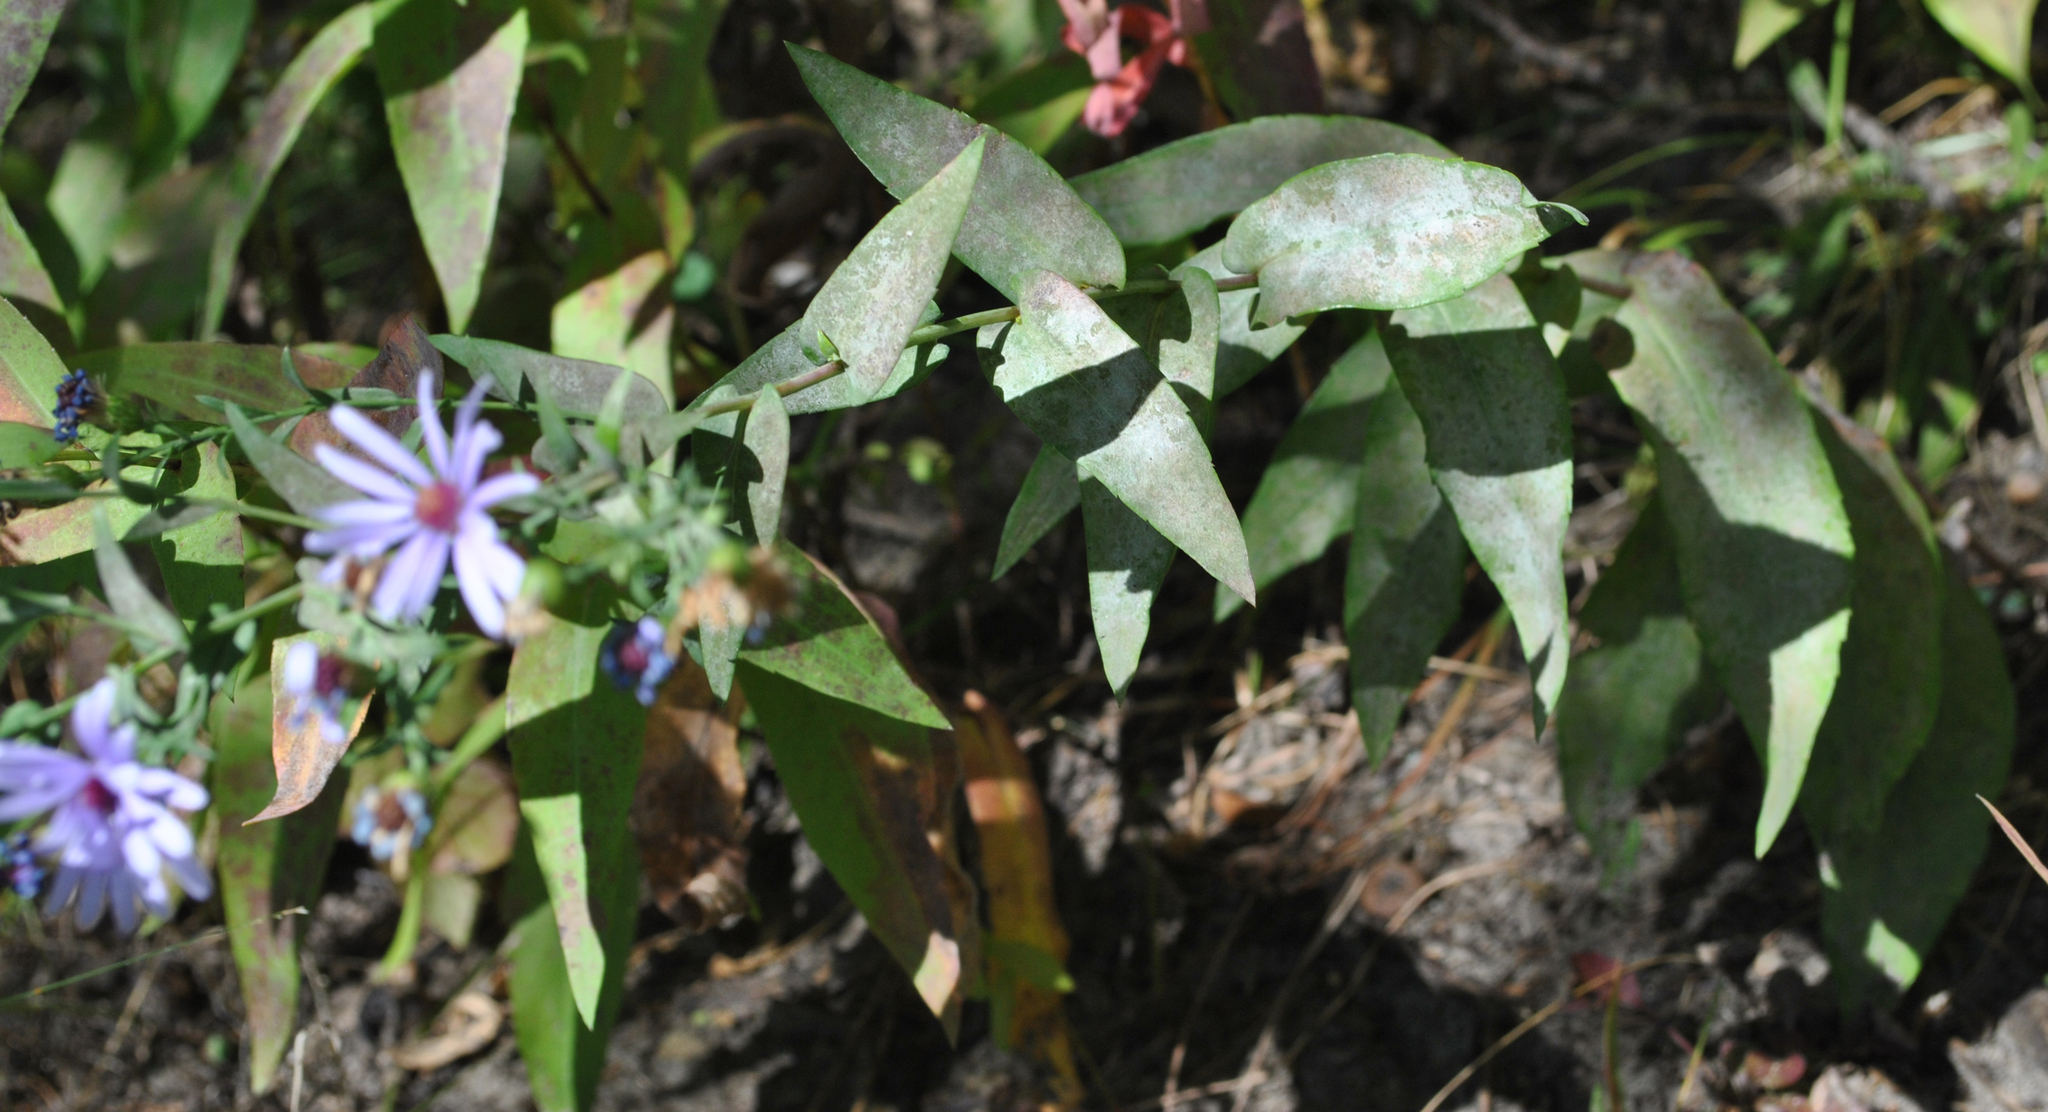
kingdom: Plantae
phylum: Tracheophyta
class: Magnoliopsida
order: Asterales
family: Asteraceae
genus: Symphyotrichum
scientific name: Symphyotrichum laeve
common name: Glaucous aster
